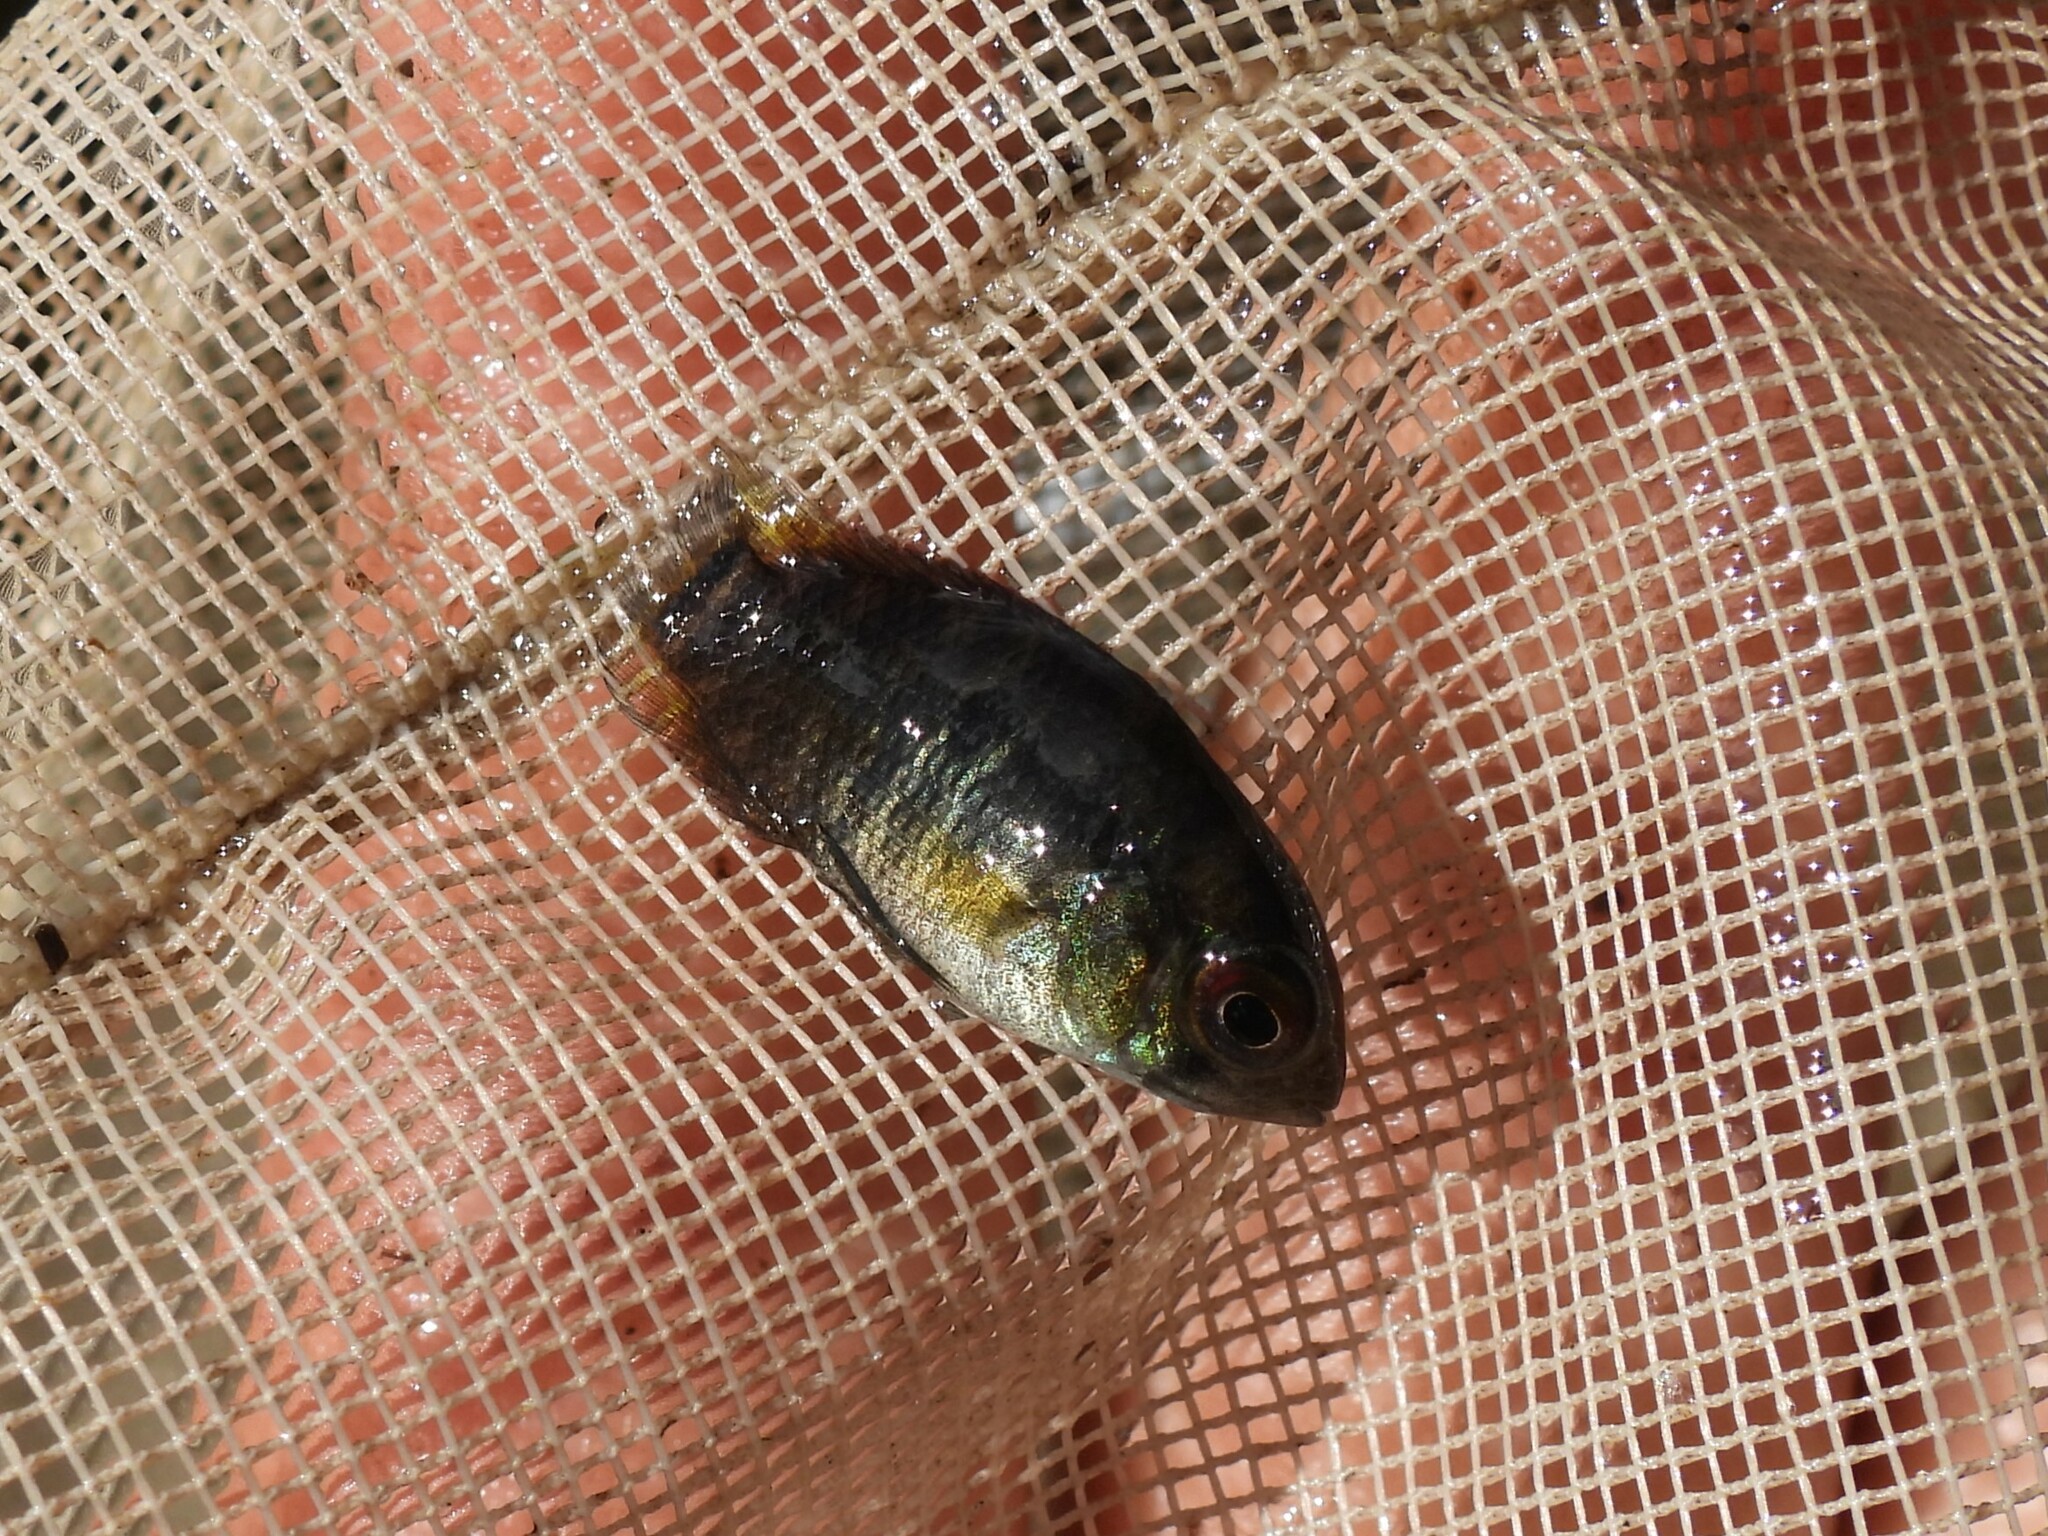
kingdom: Animalia
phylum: Chordata
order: Perciformes
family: Cichlidae
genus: Cichlasoma
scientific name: Cichlasoma dimerus
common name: Chanchita
